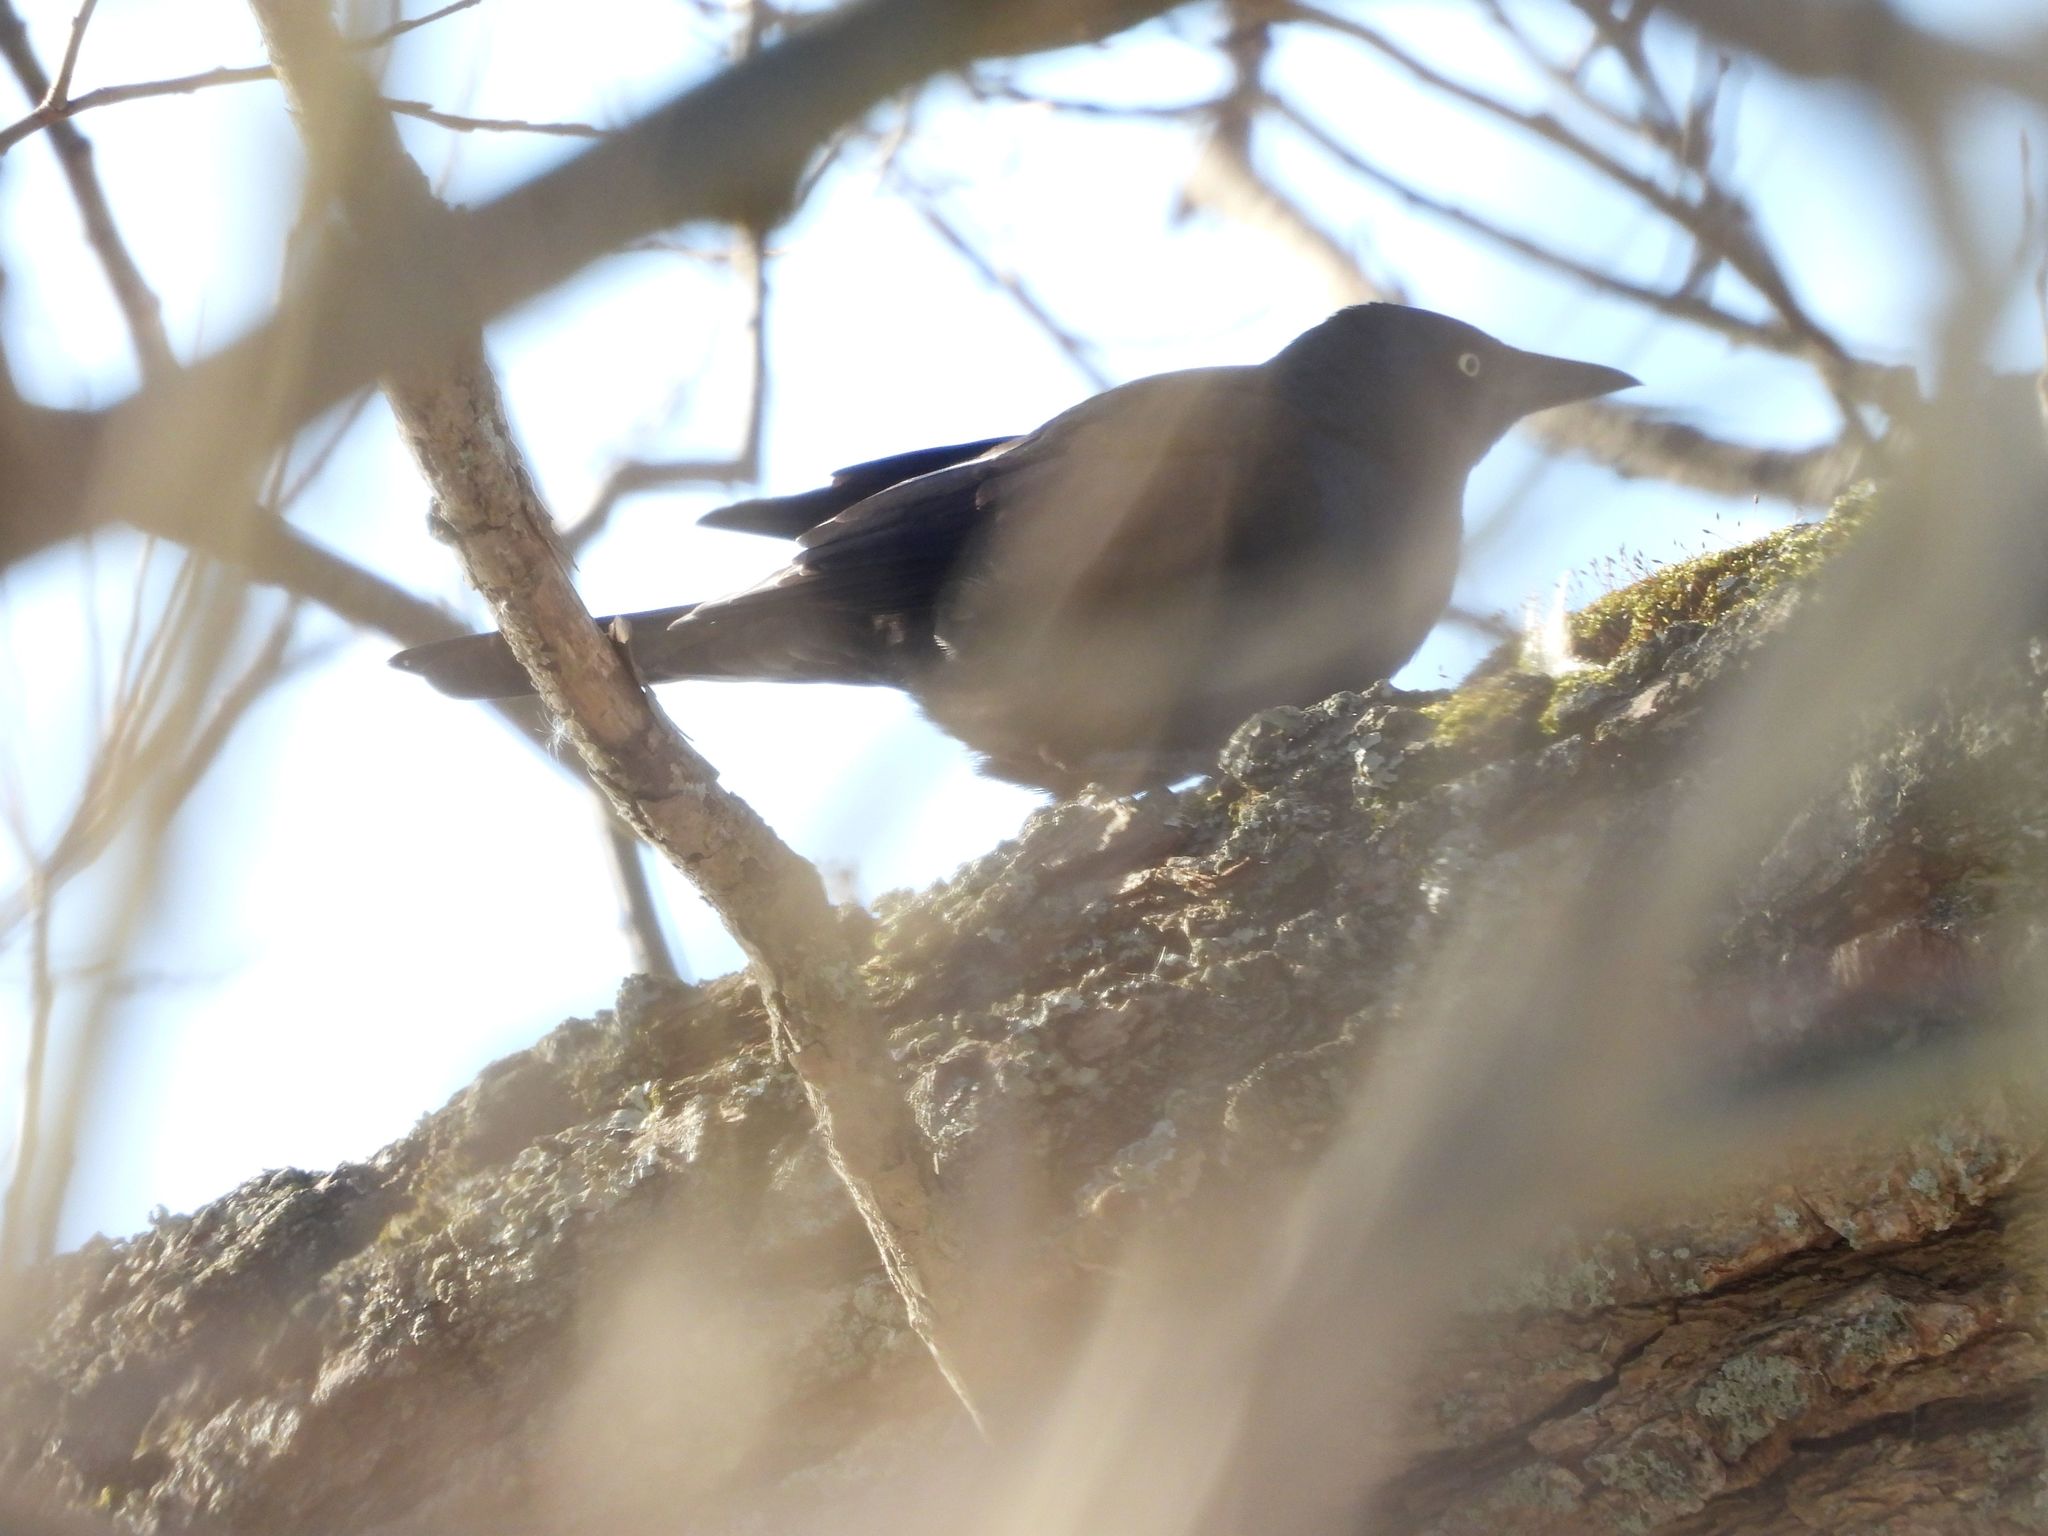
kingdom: Animalia
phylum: Chordata
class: Aves
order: Passeriformes
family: Icteridae
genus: Quiscalus
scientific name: Quiscalus quiscula
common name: Common grackle
